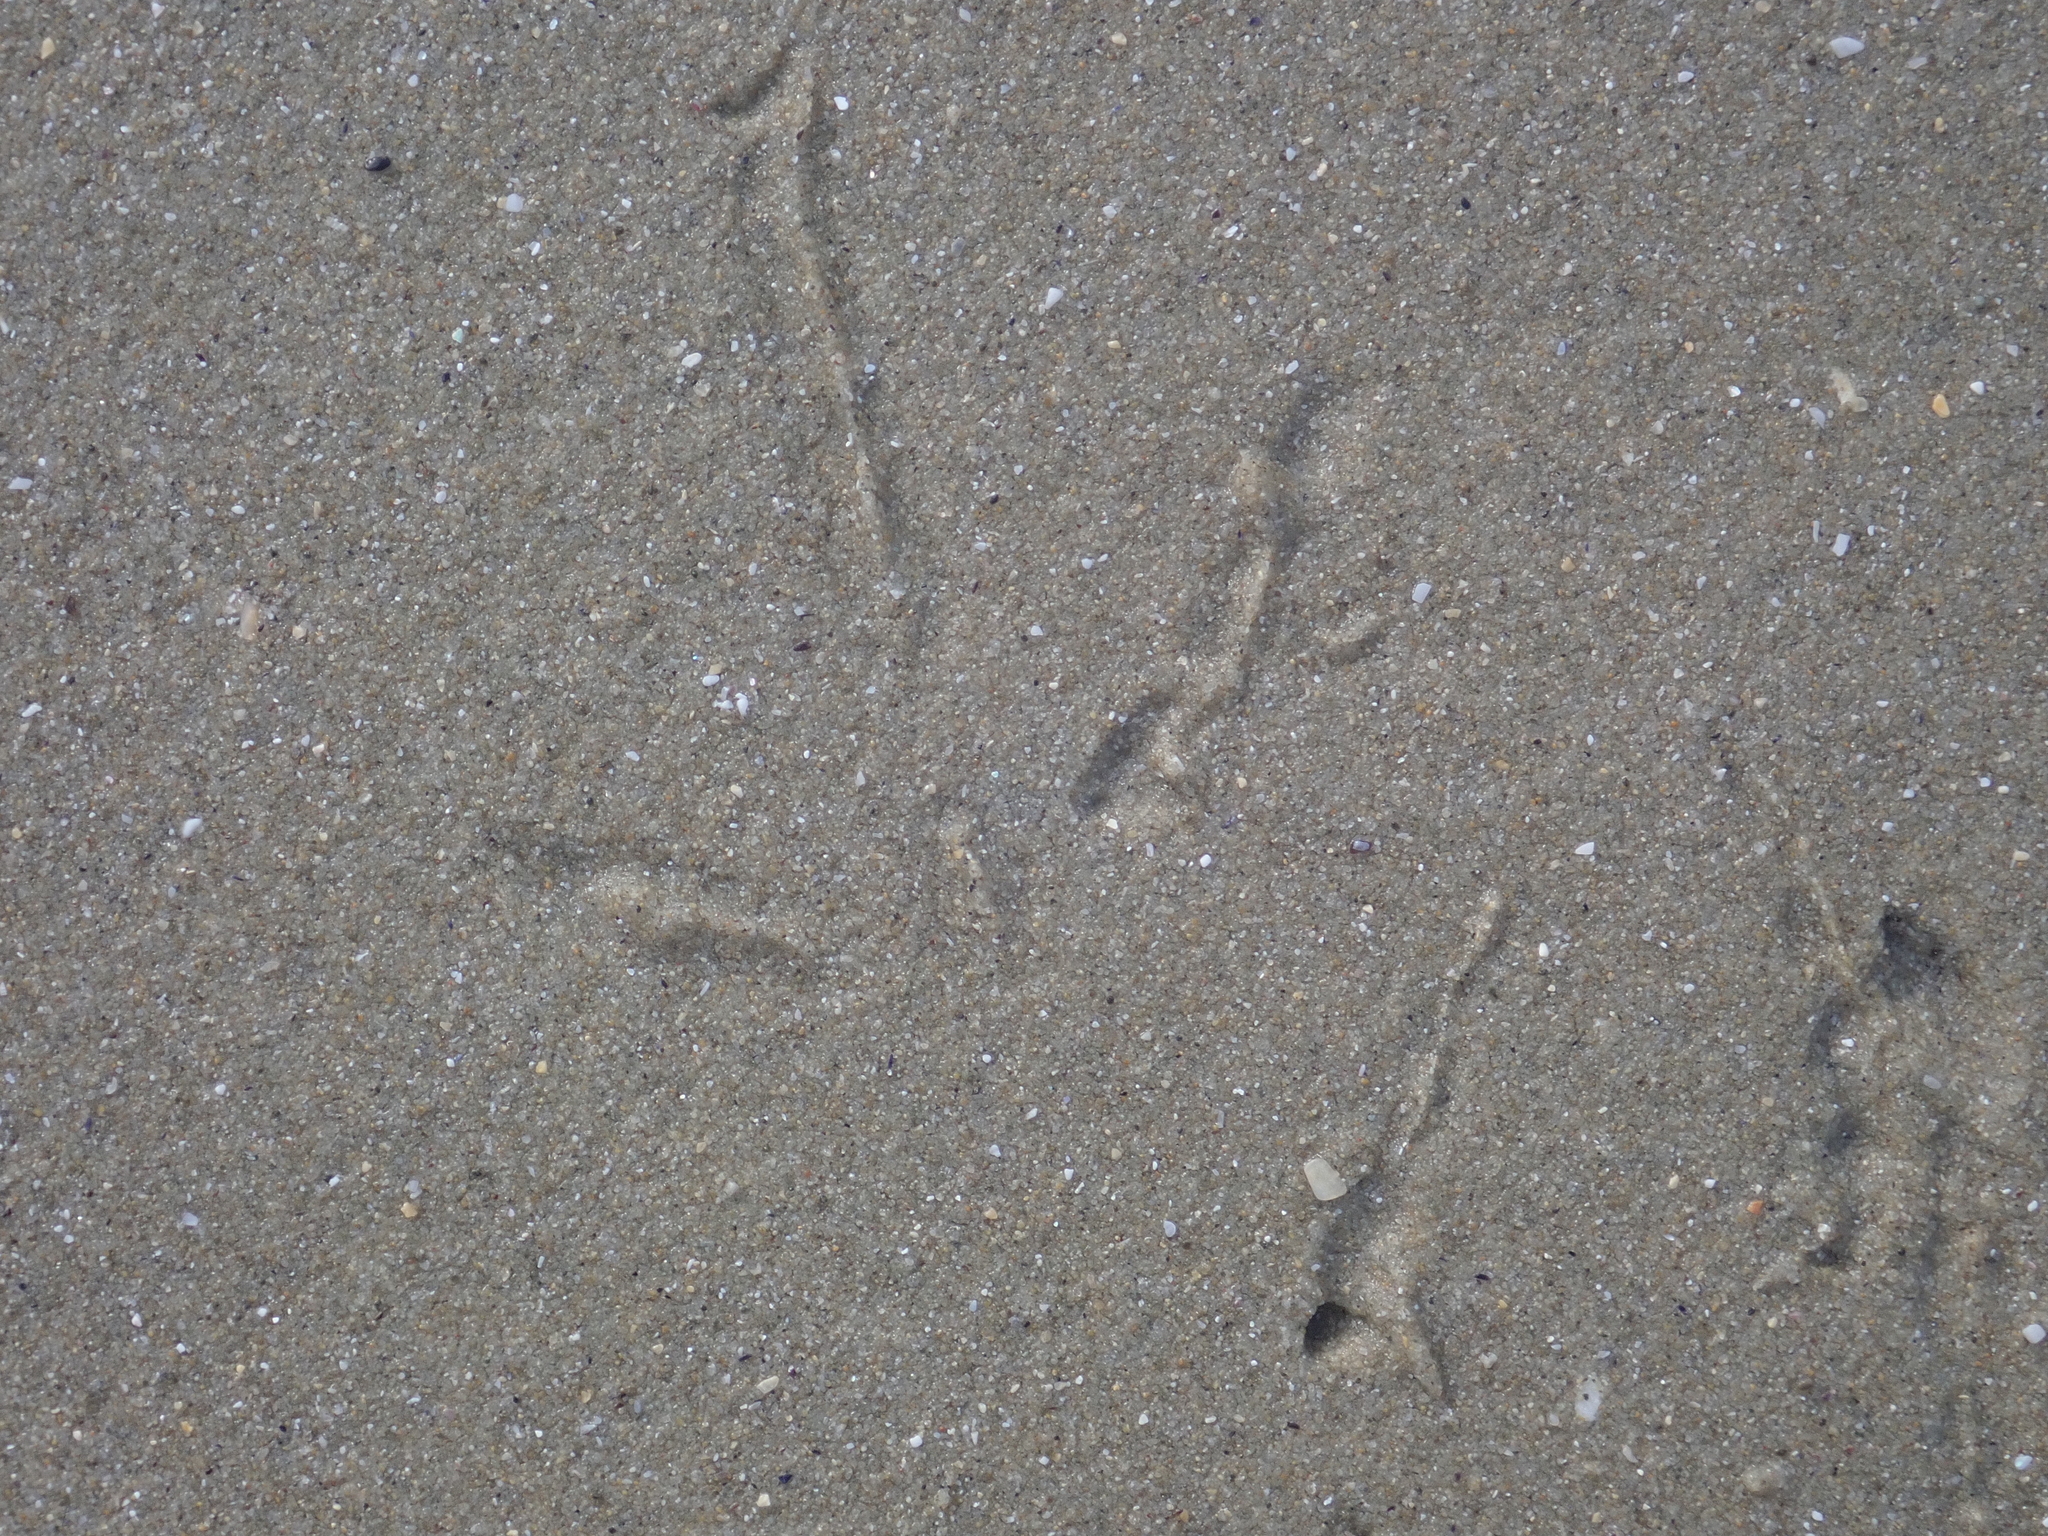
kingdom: Animalia
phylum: Chordata
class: Aves
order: Charadriiformes
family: Haematopodidae
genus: Haematopus
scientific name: Haematopus unicolor
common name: Variable oystercatcher
